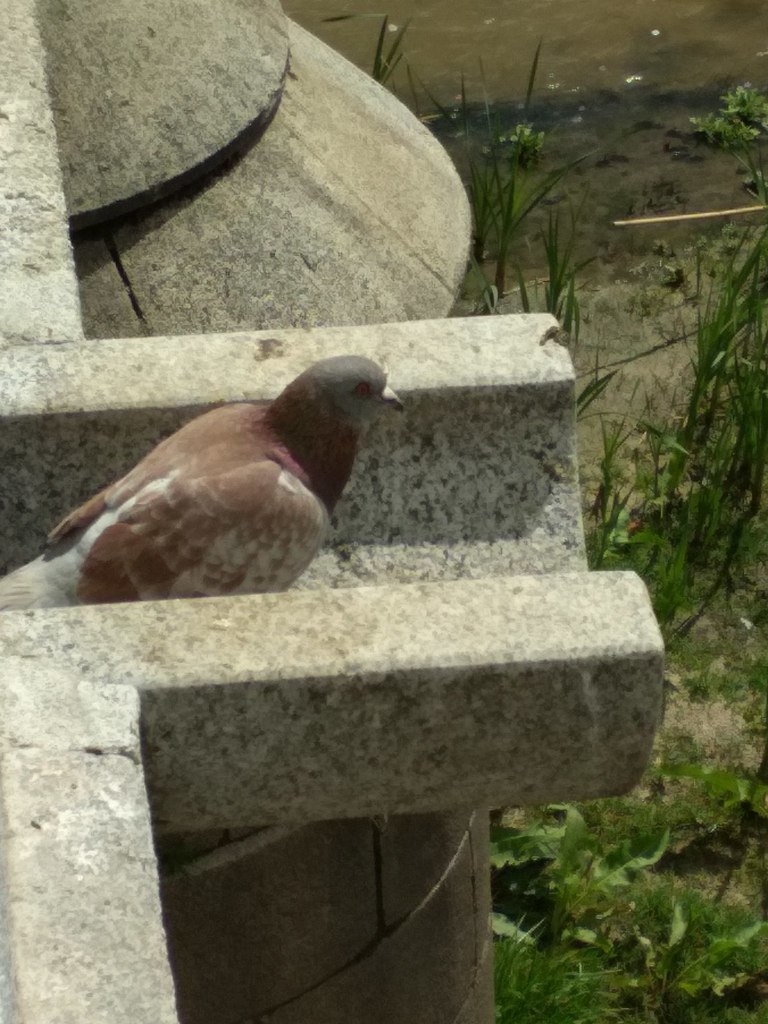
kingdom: Animalia
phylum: Chordata
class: Aves
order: Columbiformes
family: Columbidae
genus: Columba
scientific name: Columba livia
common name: Rock pigeon
